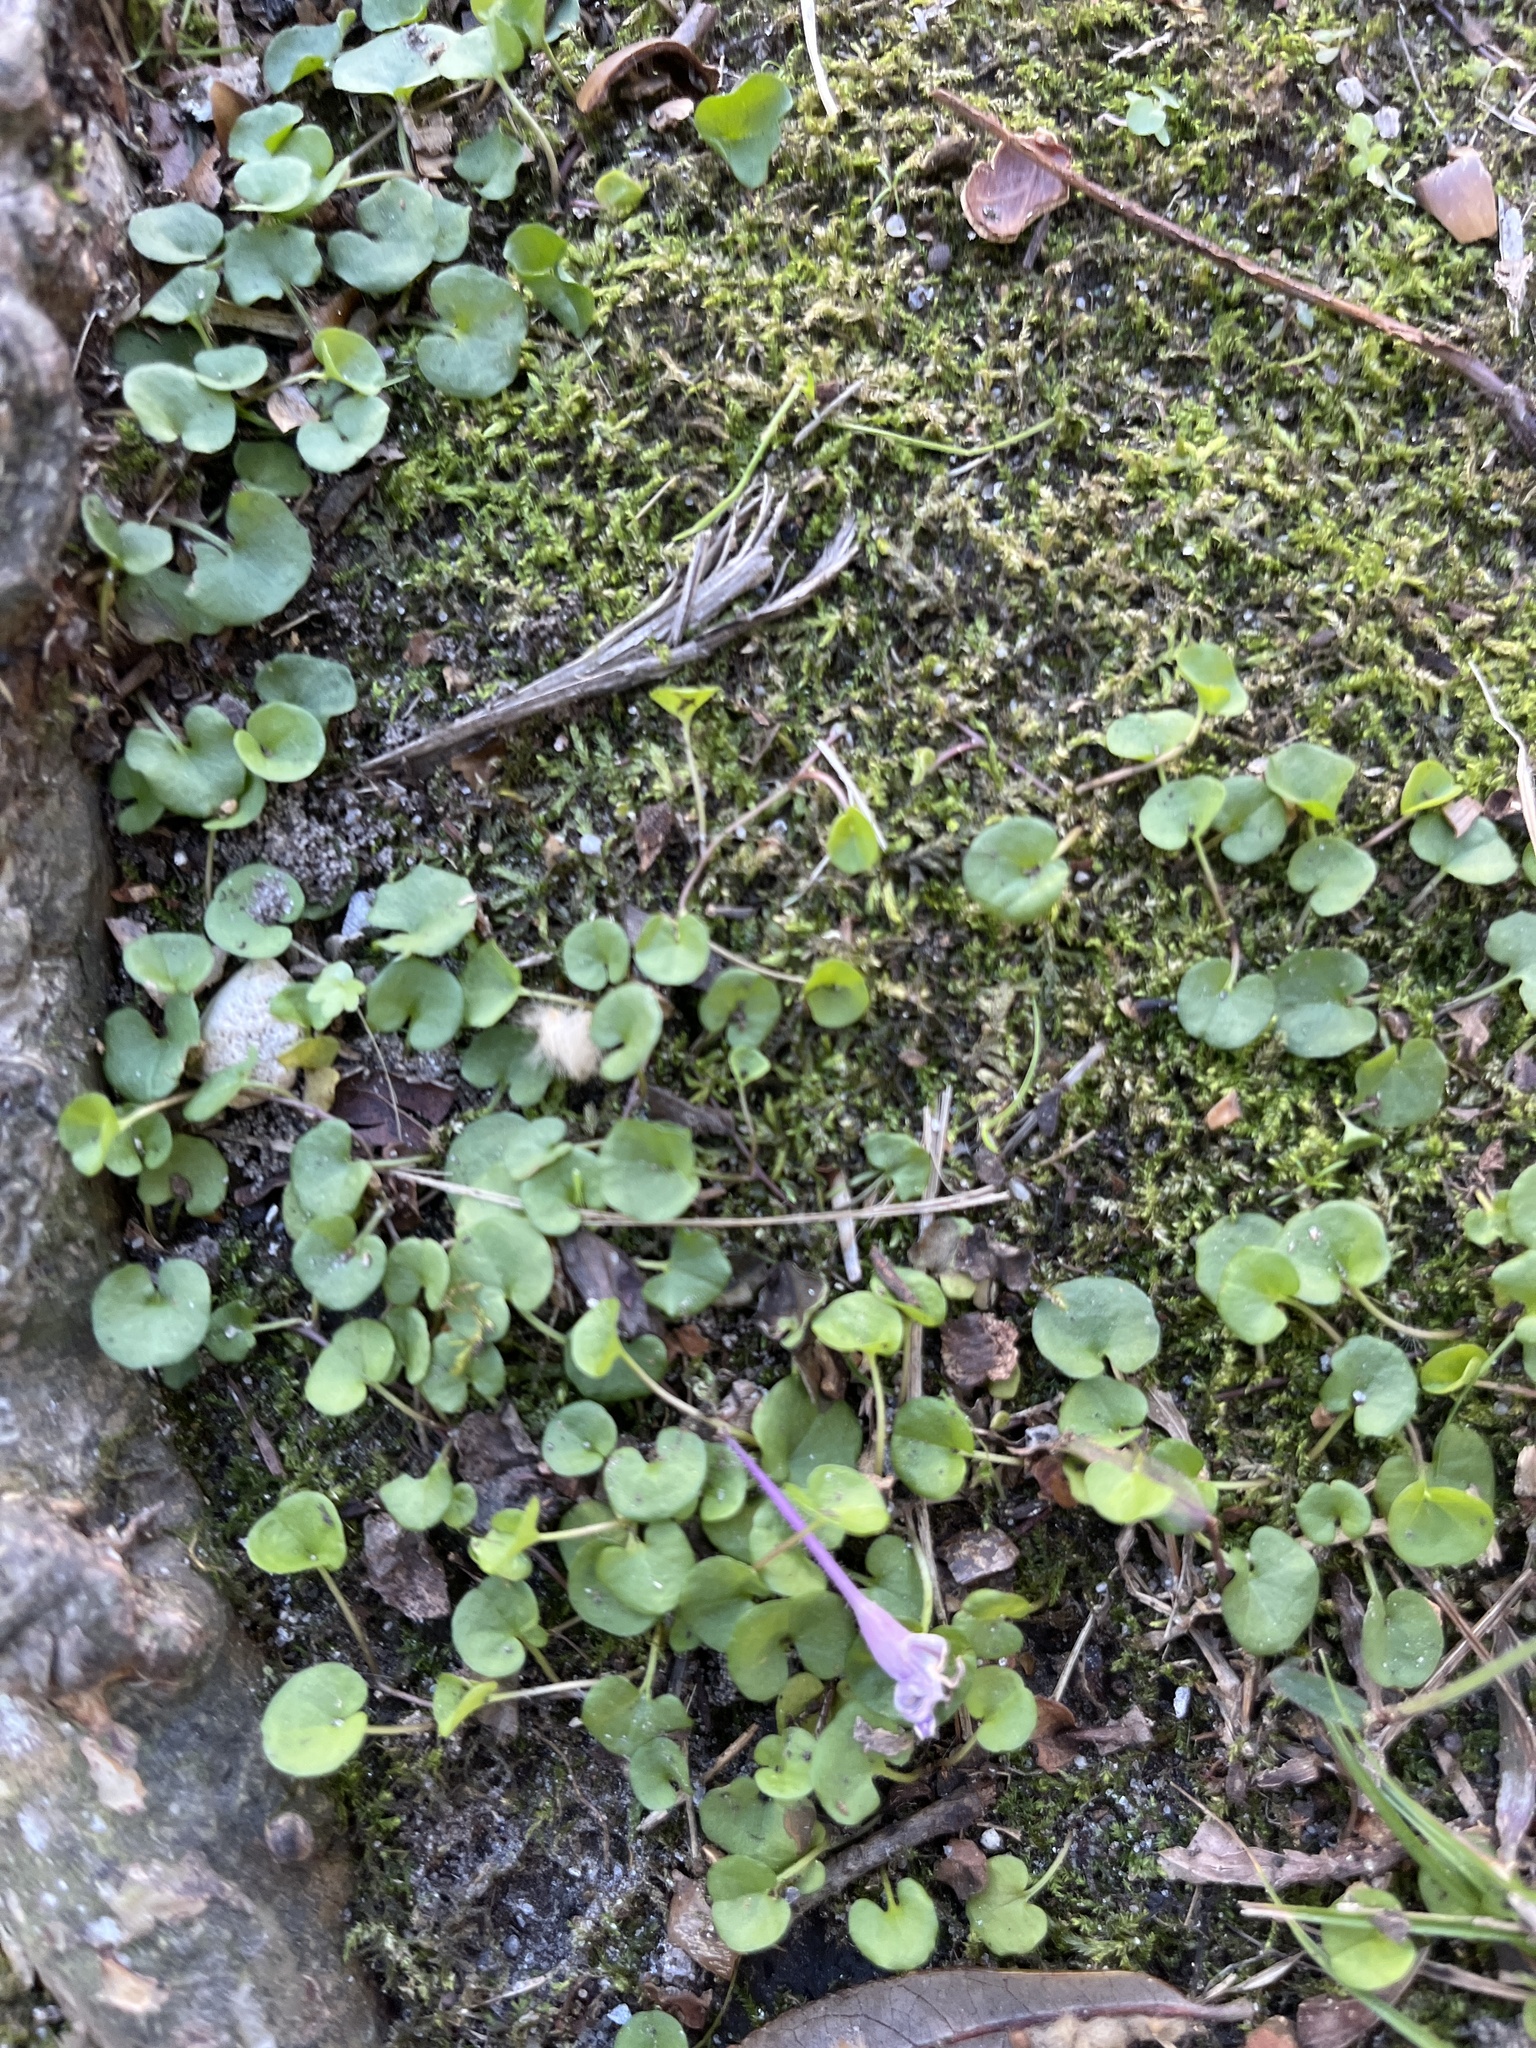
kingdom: Plantae
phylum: Tracheophyta
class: Magnoliopsida
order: Solanales
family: Convolvulaceae
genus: Dichondra
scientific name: Dichondra carolinensis
